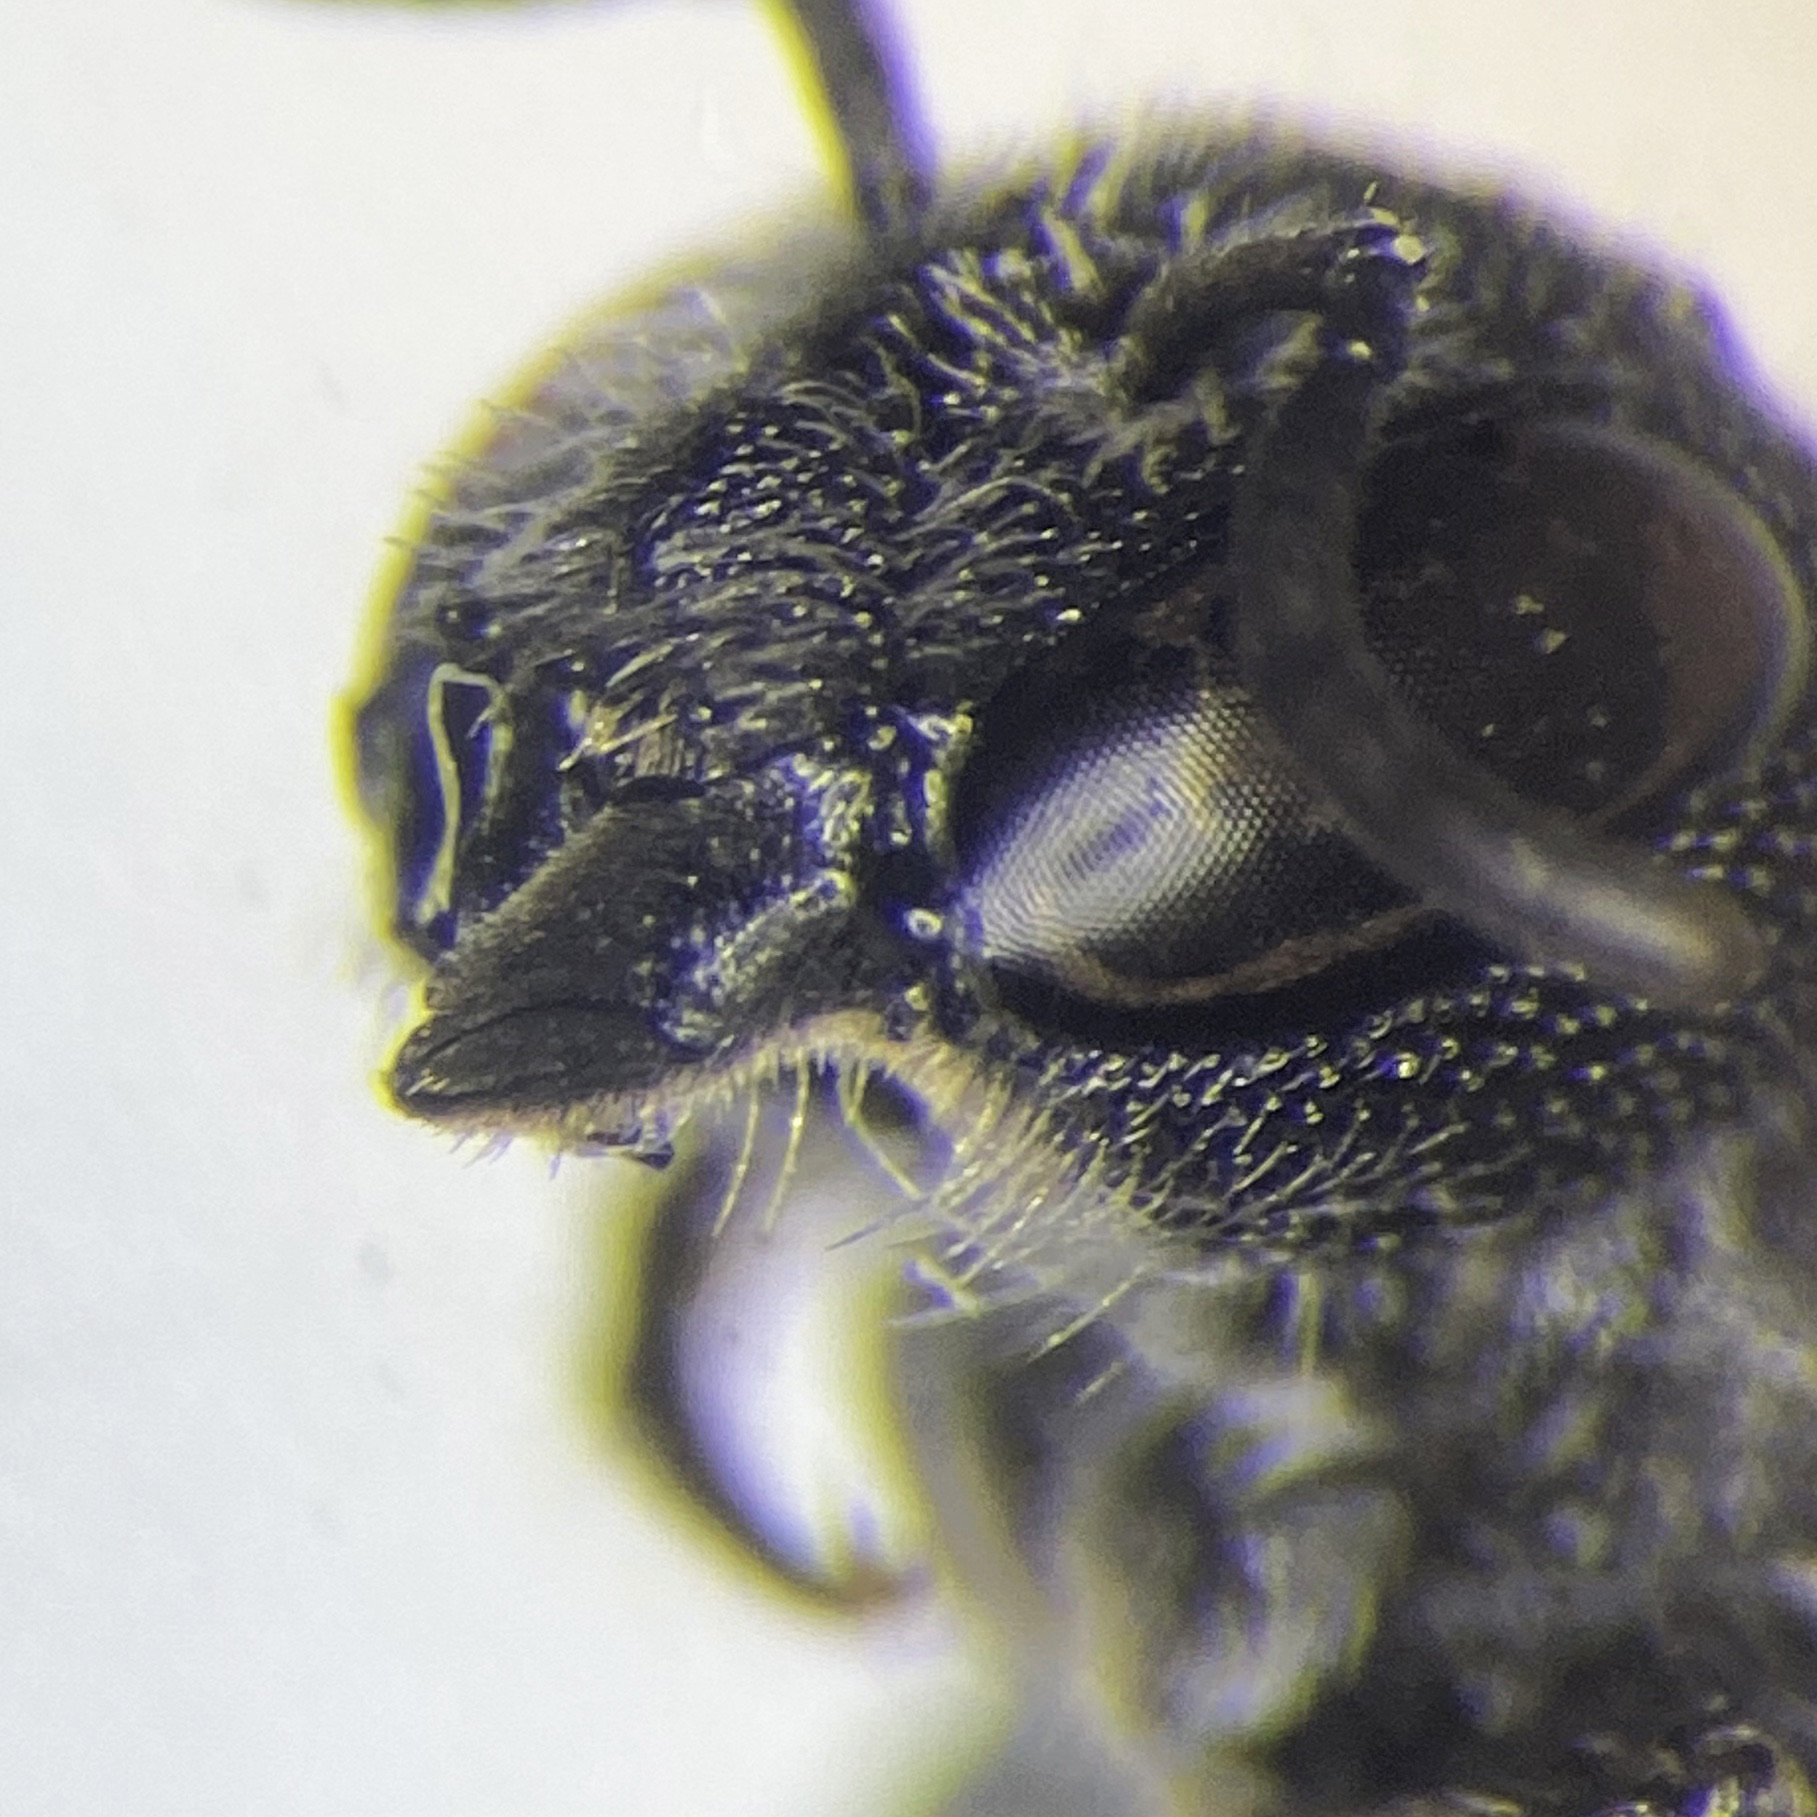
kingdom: Animalia
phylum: Arthropoda
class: Insecta
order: Hymenoptera
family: Megachilidae
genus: Heriades
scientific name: Heriades carinata
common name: Carinate armored-resin bee
